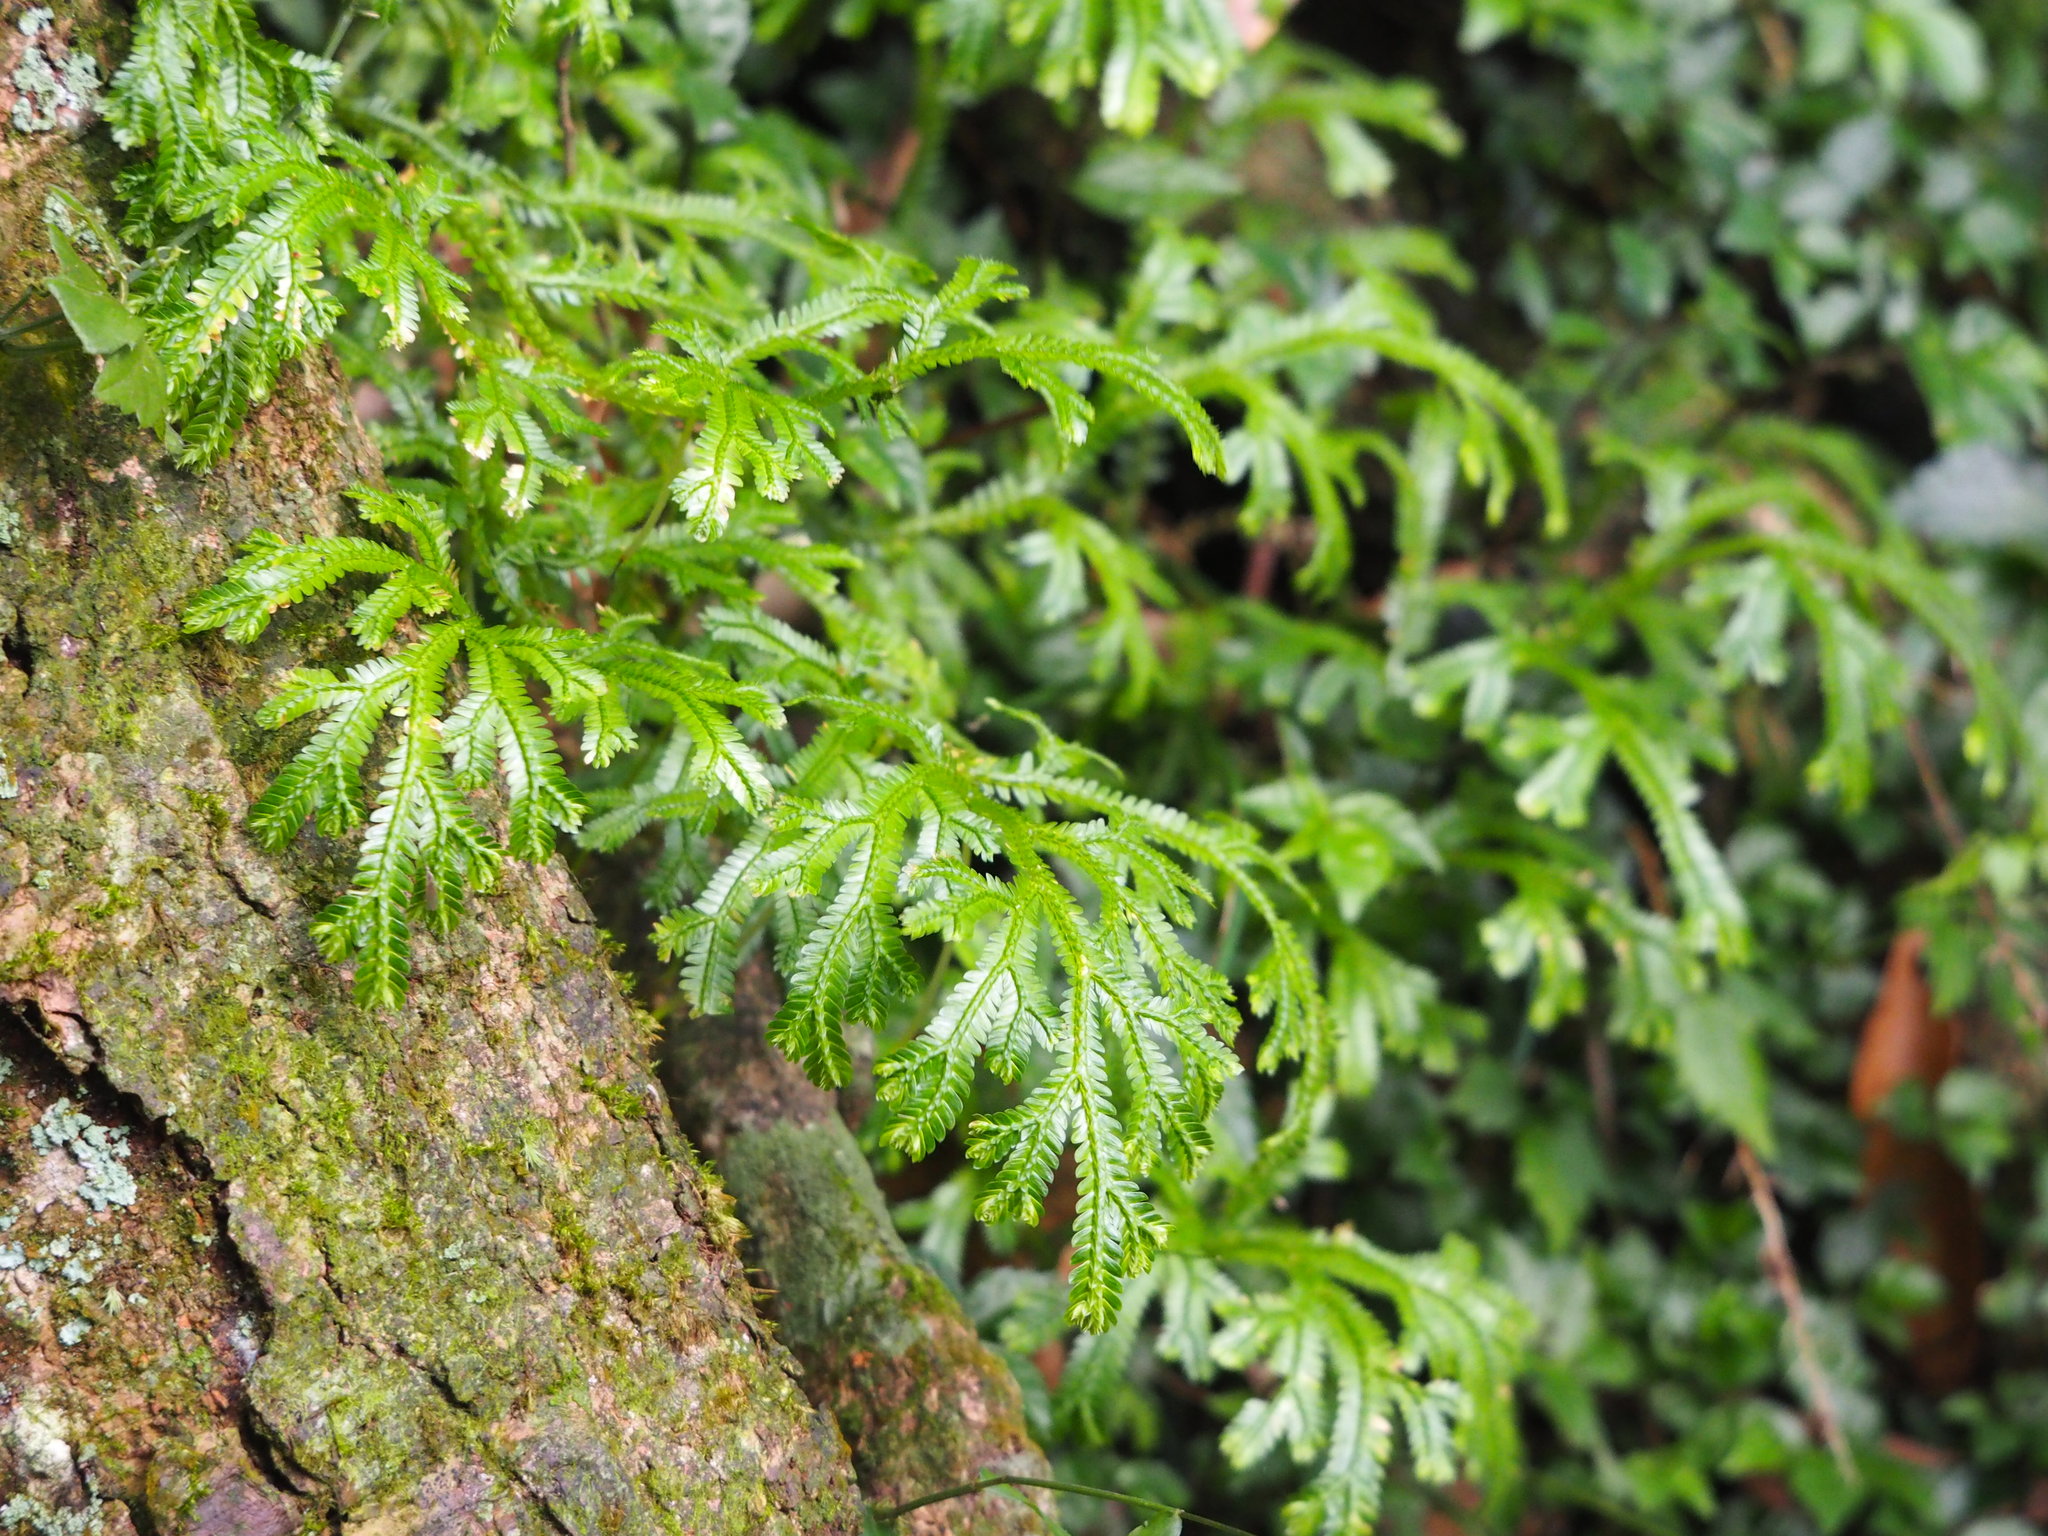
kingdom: Plantae
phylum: Tracheophyta
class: Lycopodiopsida
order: Selaginellales
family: Selaginellaceae
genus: Selaginella
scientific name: Selaginella doederleinii
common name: Greater selaginella
